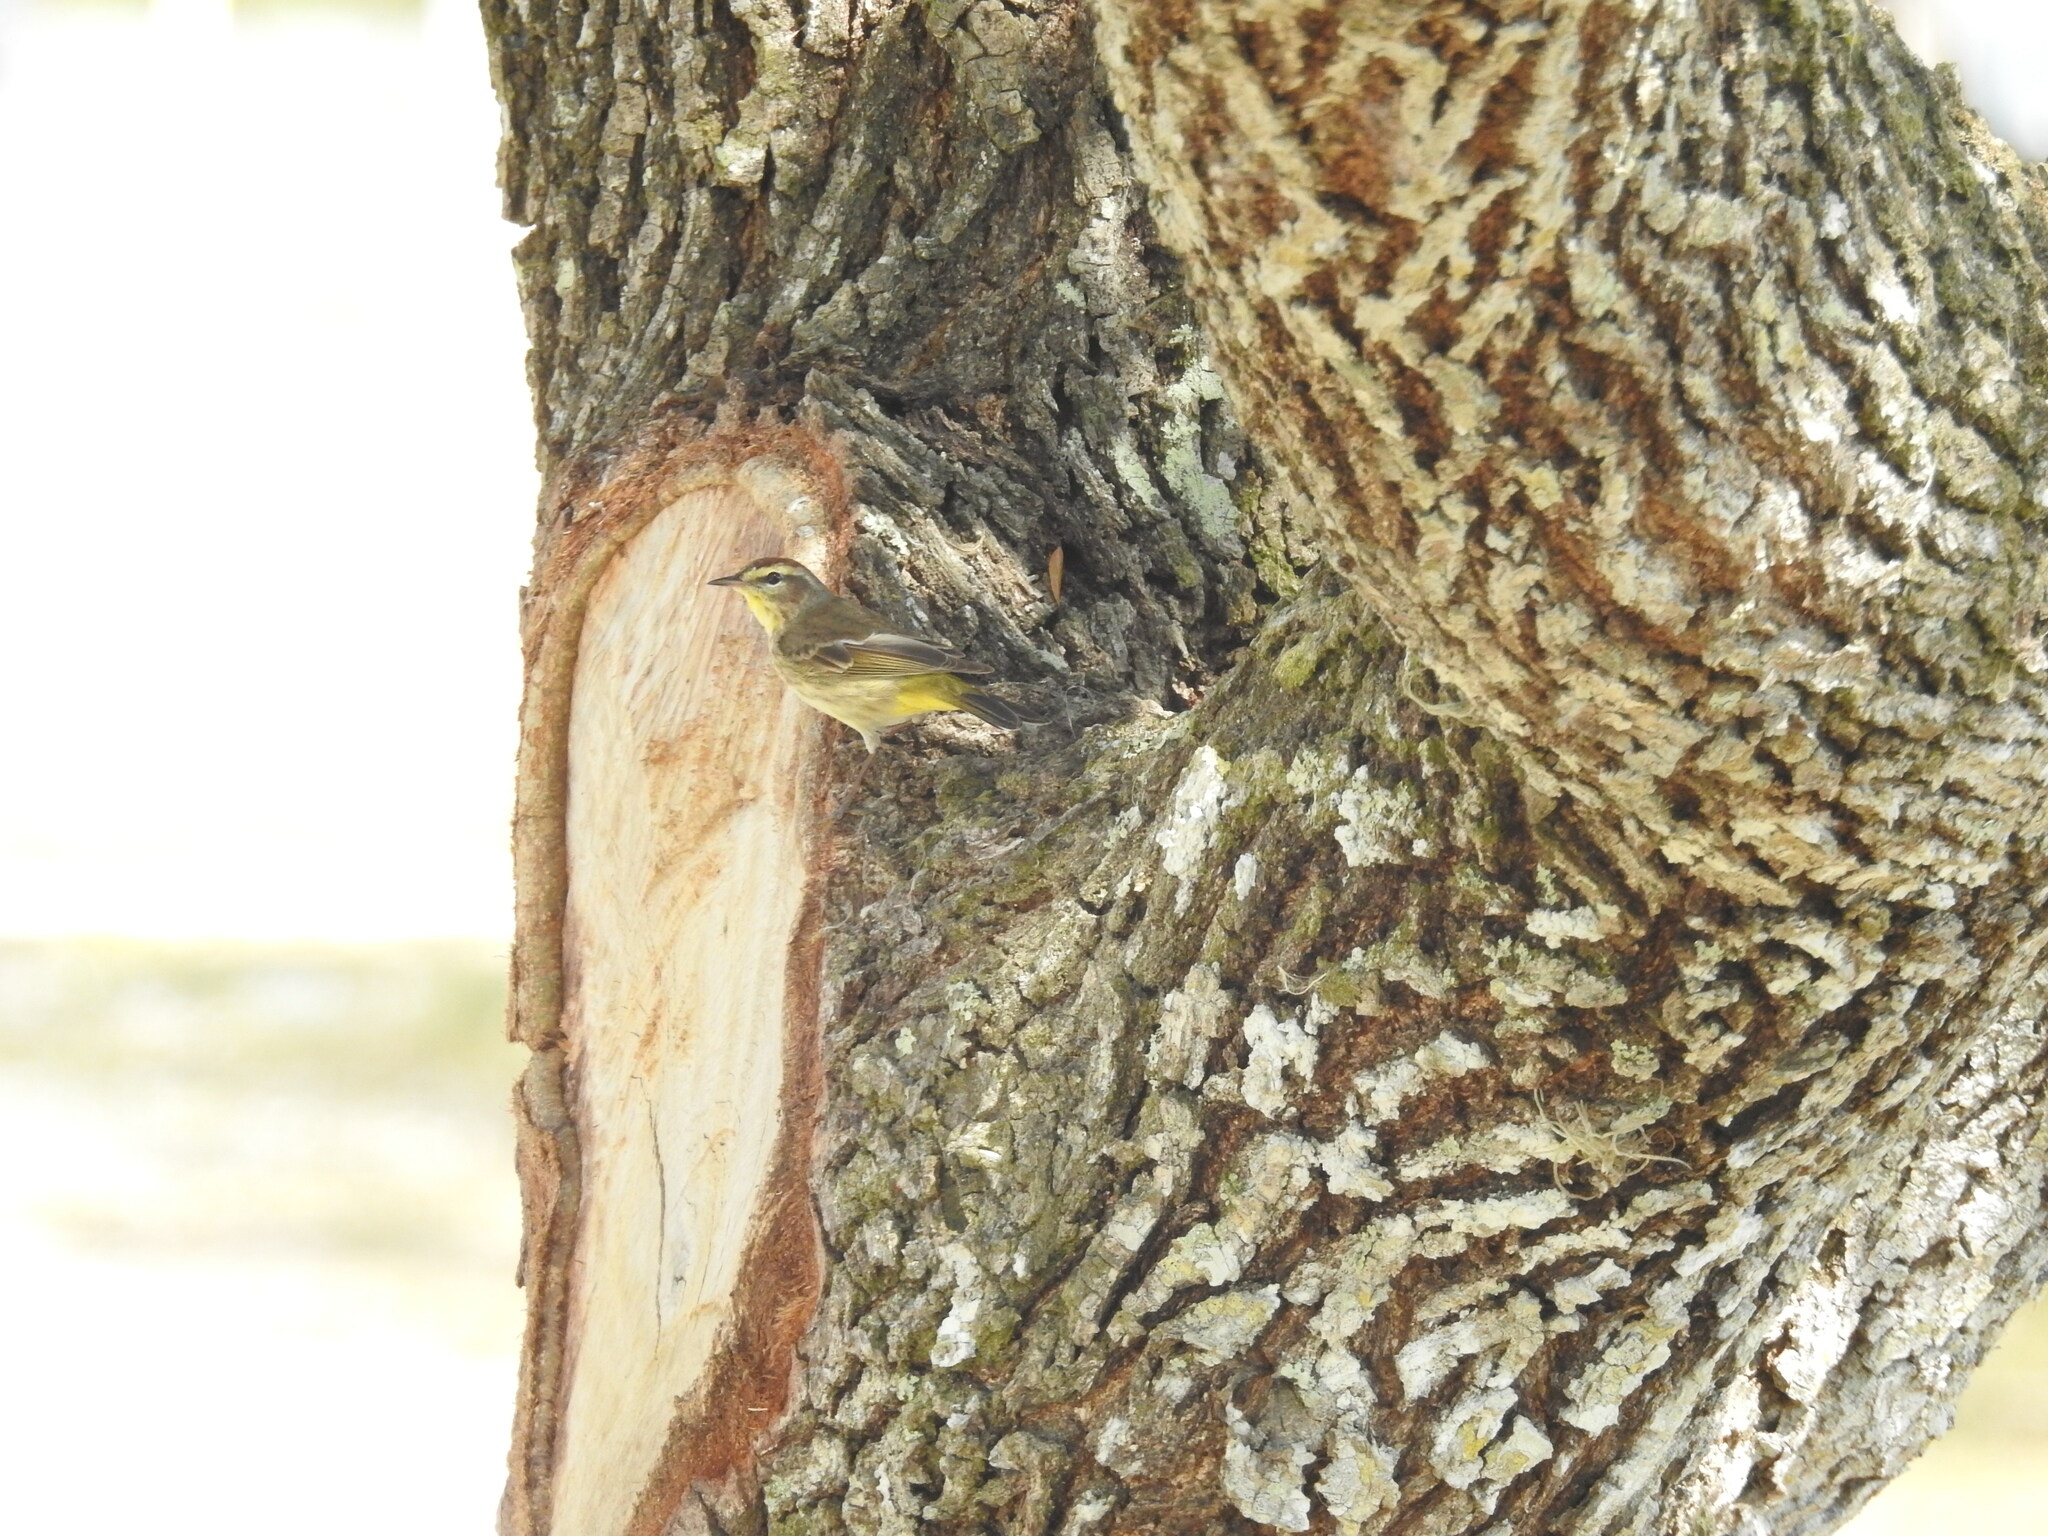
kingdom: Animalia
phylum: Chordata
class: Aves
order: Passeriformes
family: Parulidae
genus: Setophaga
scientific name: Setophaga palmarum
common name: Palm warbler
